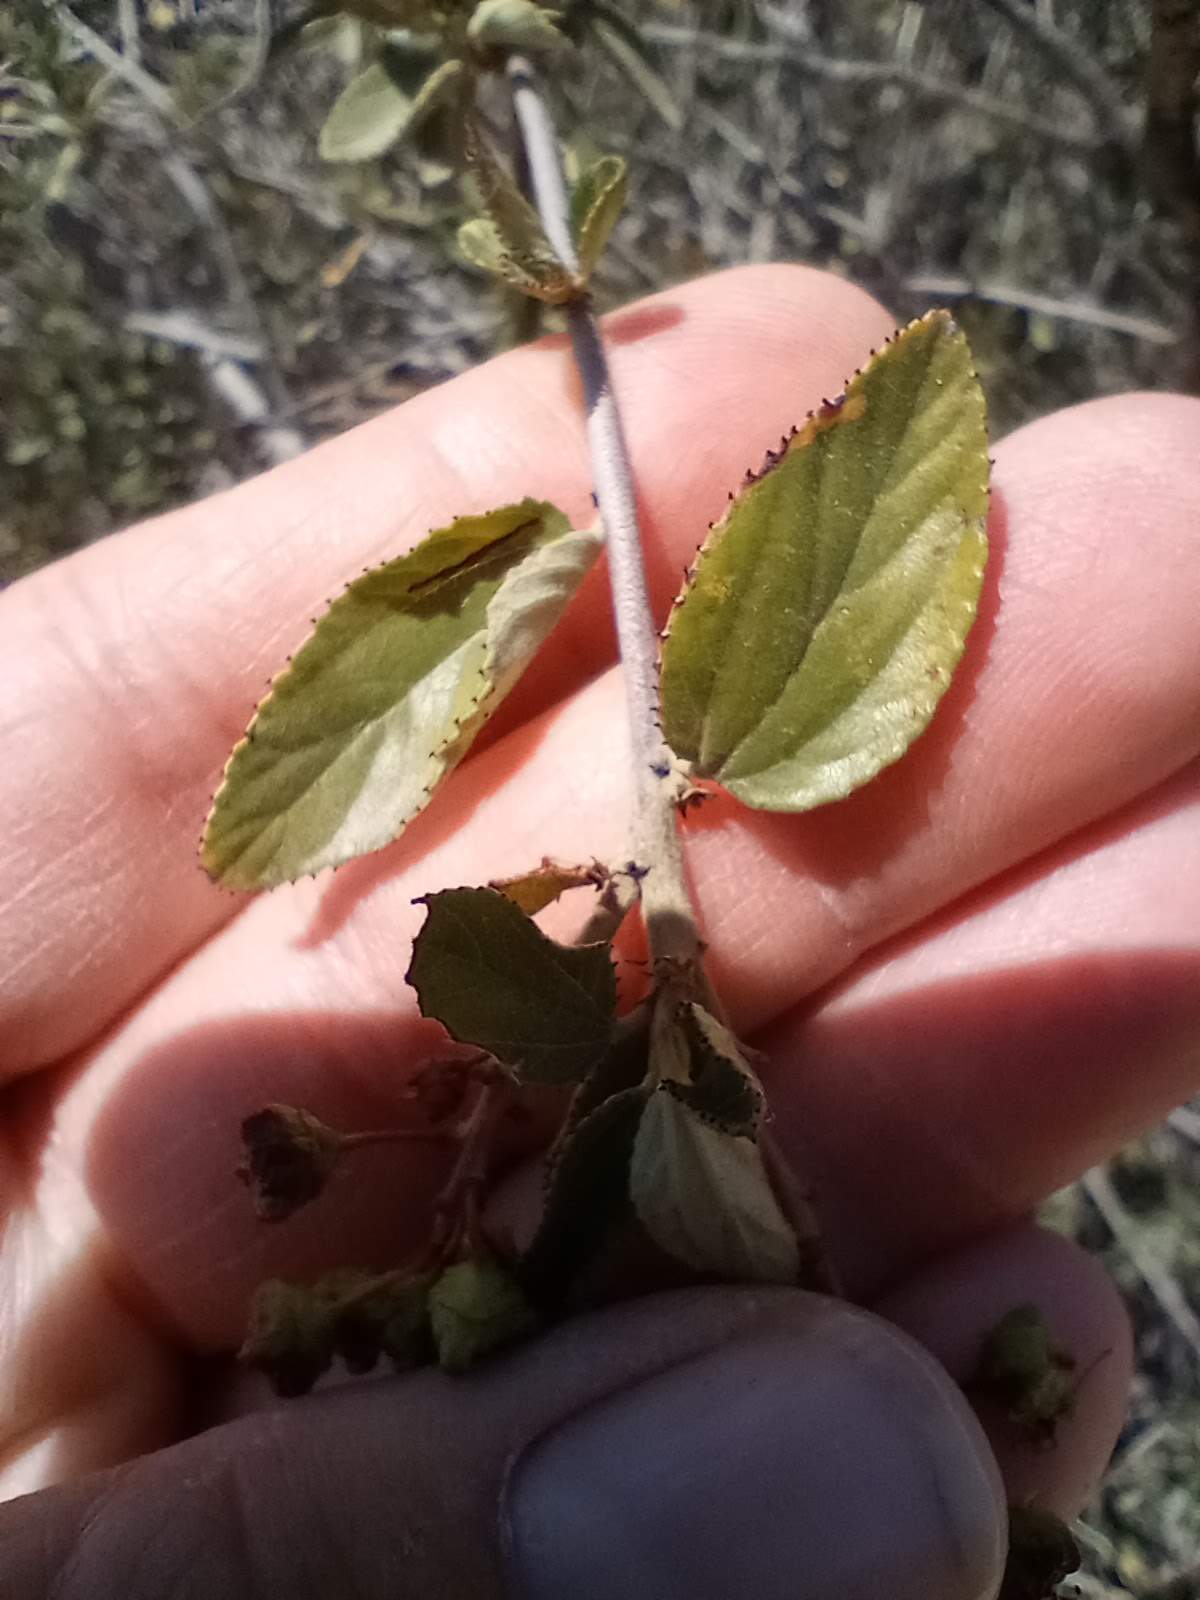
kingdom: Plantae
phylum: Tracheophyta
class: Magnoliopsida
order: Rosales
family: Rhamnaceae
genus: Ceanothus
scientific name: Ceanothus tomentosus
